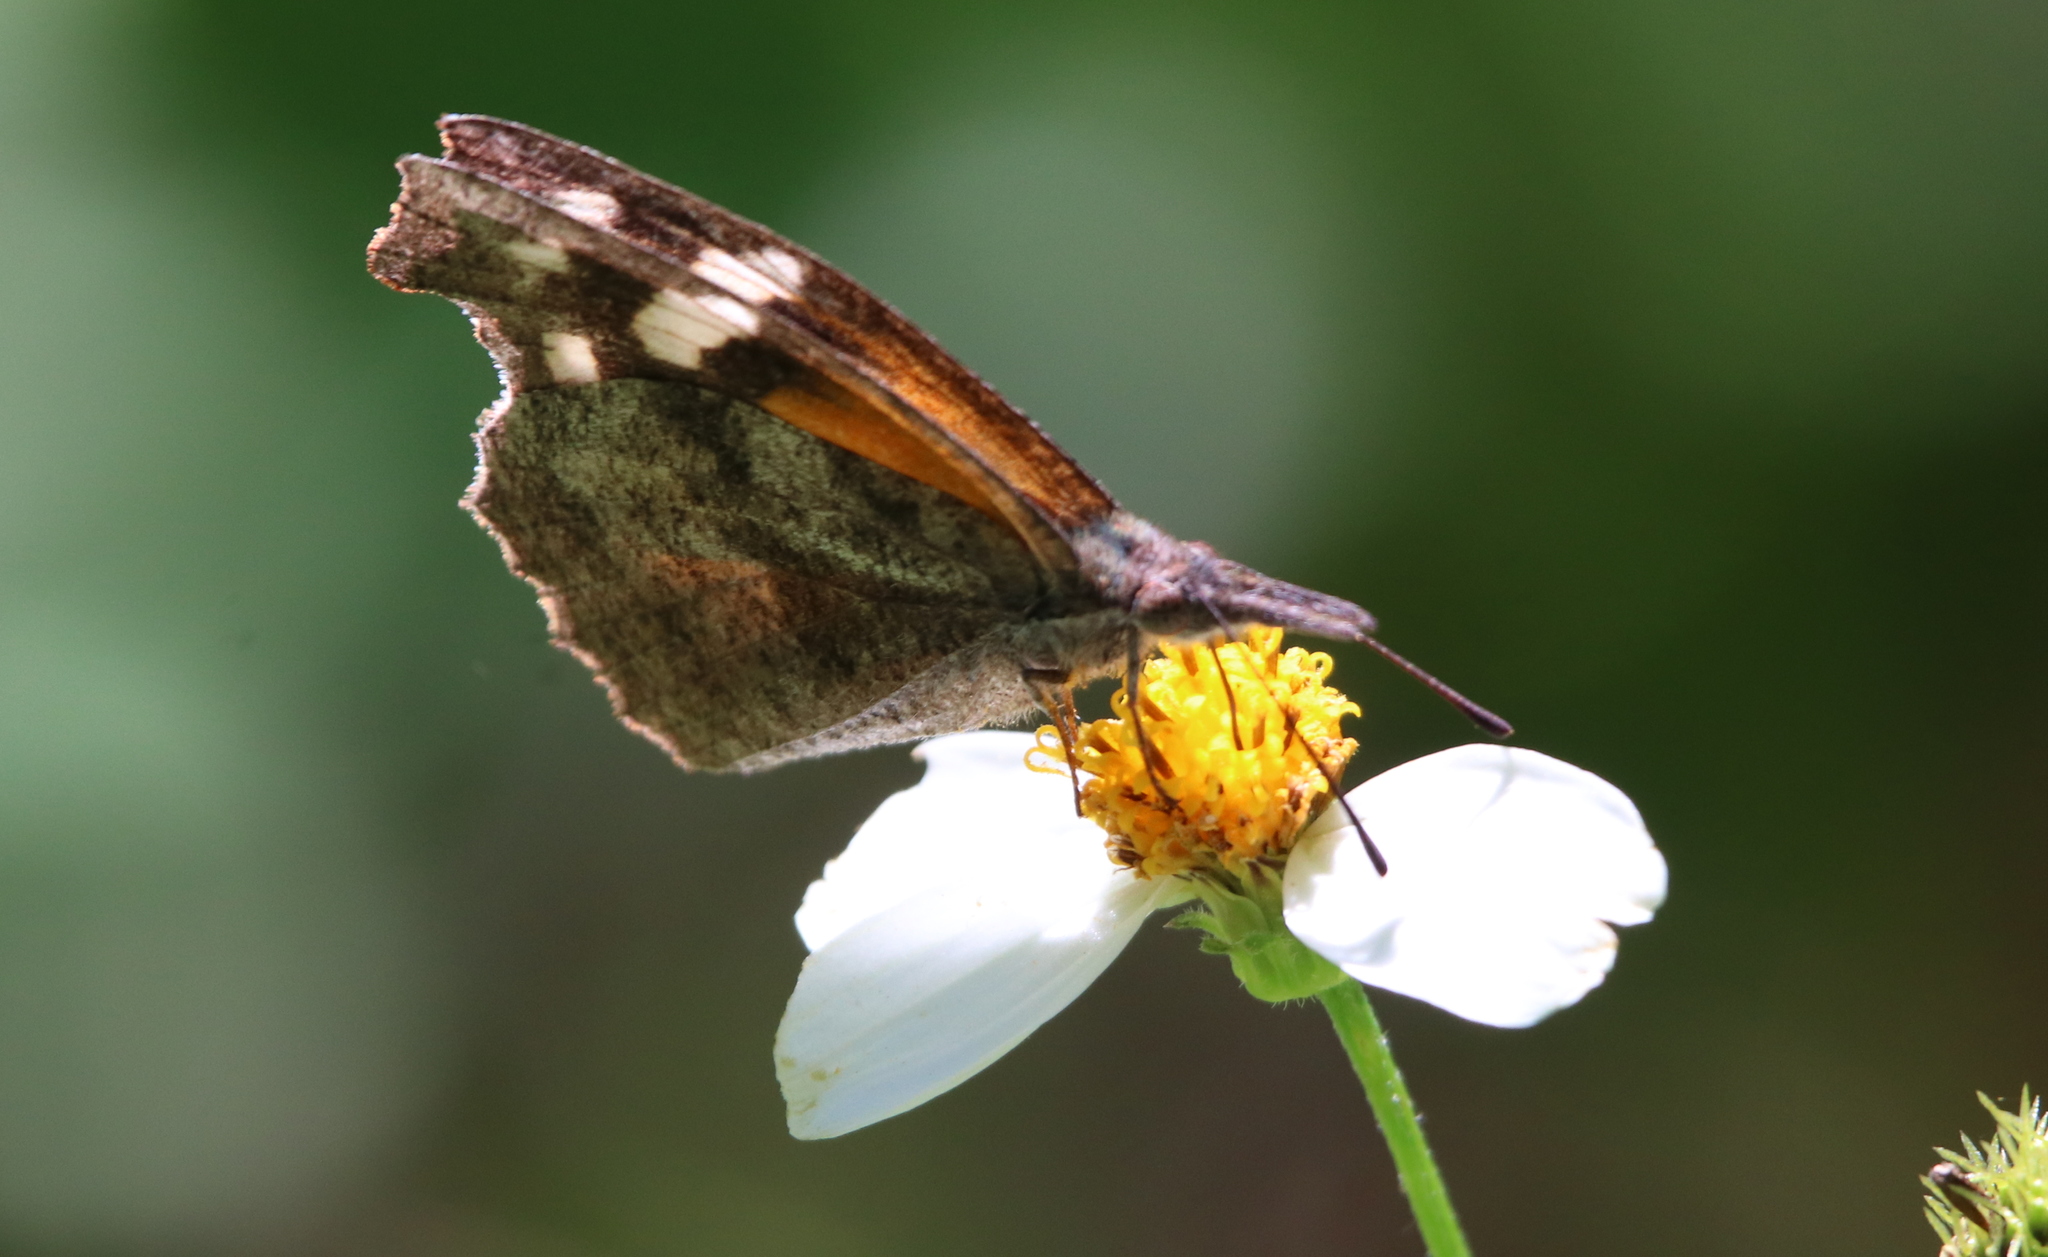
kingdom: Animalia
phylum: Arthropoda
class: Insecta
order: Lepidoptera
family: Nymphalidae
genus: Libytheana
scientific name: Libytheana carinenta
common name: American snout
